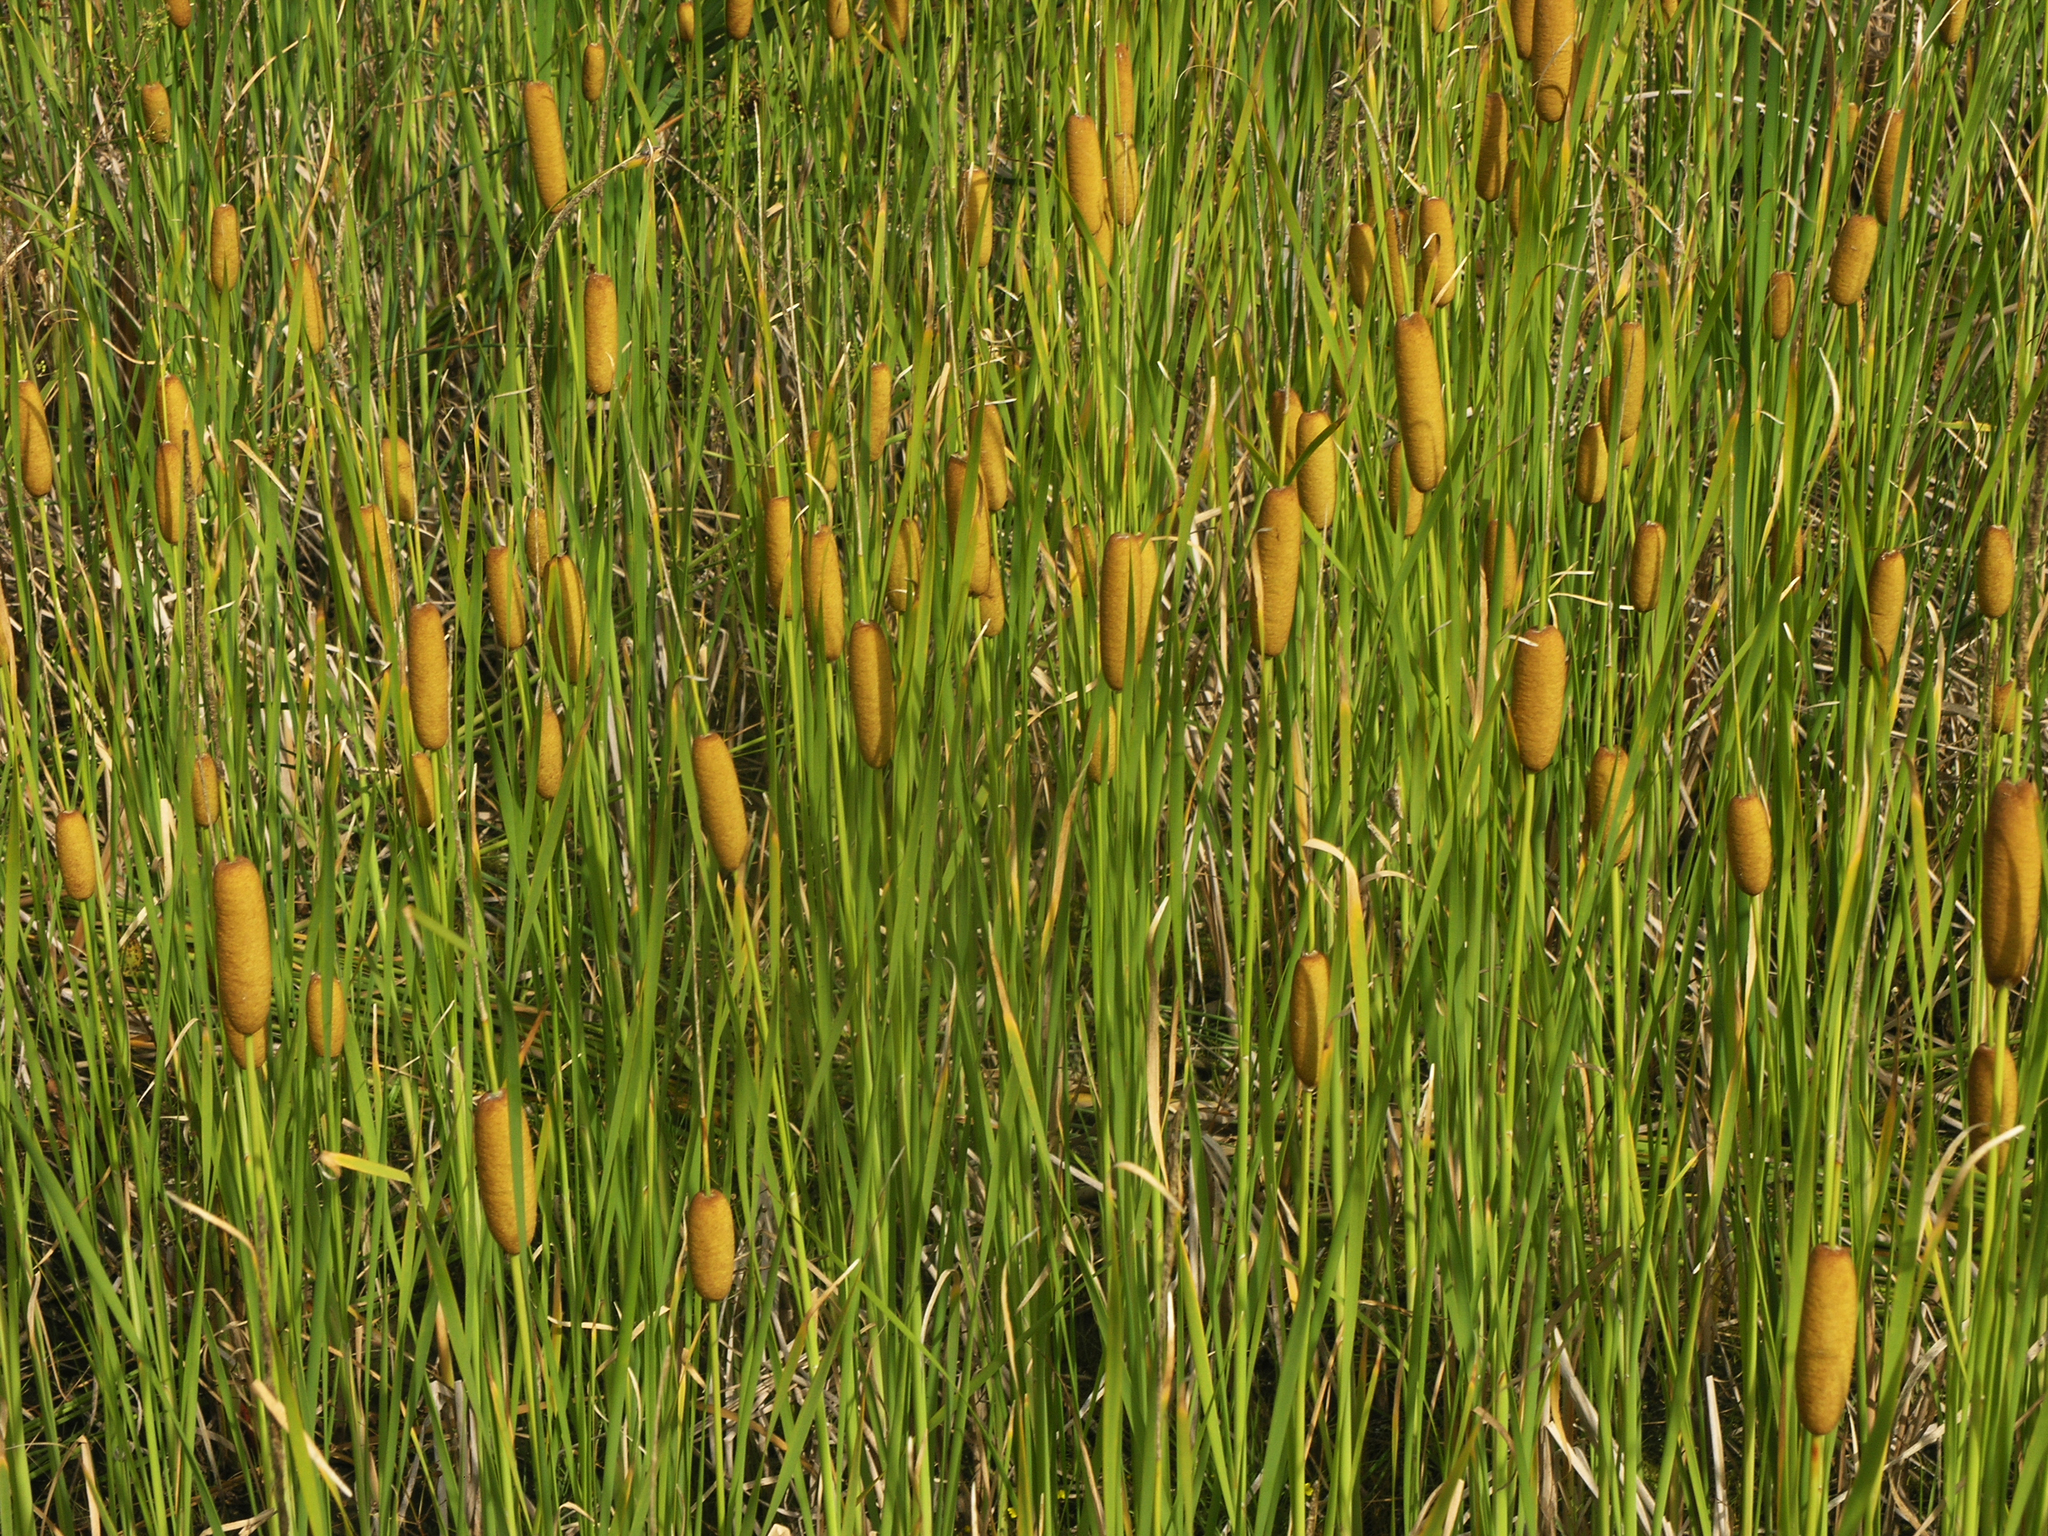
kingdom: Plantae
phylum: Tracheophyta
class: Liliopsida
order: Poales
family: Typhaceae
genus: Typha
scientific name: Typha laxmannii
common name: Laxman’s bulrush
